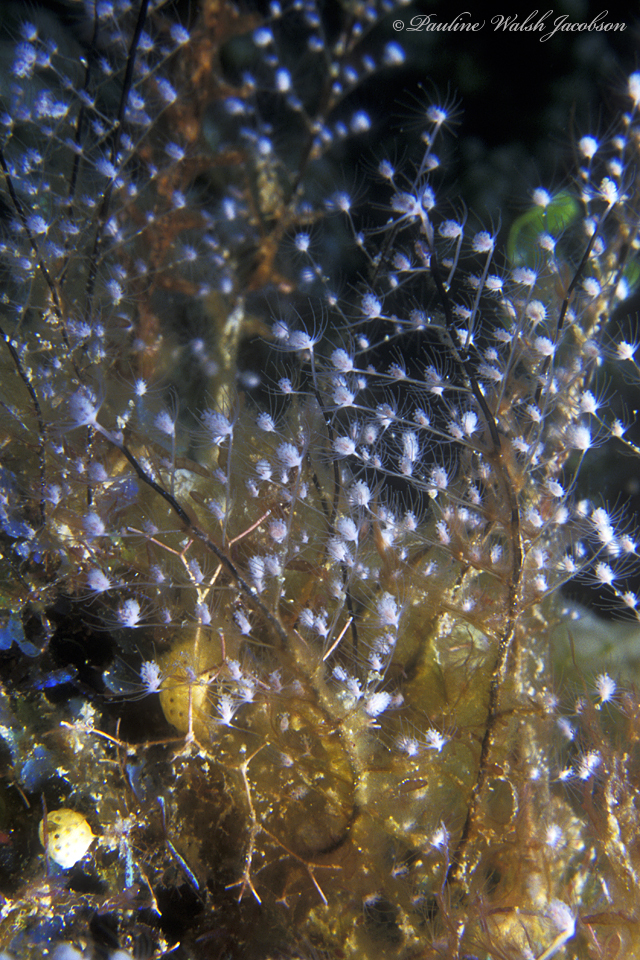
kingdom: Animalia
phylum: Cnidaria
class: Hydrozoa
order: Anthoathecata
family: Pennariidae
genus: Pennaria
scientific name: Pennaria disticha
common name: Feather hydroid
